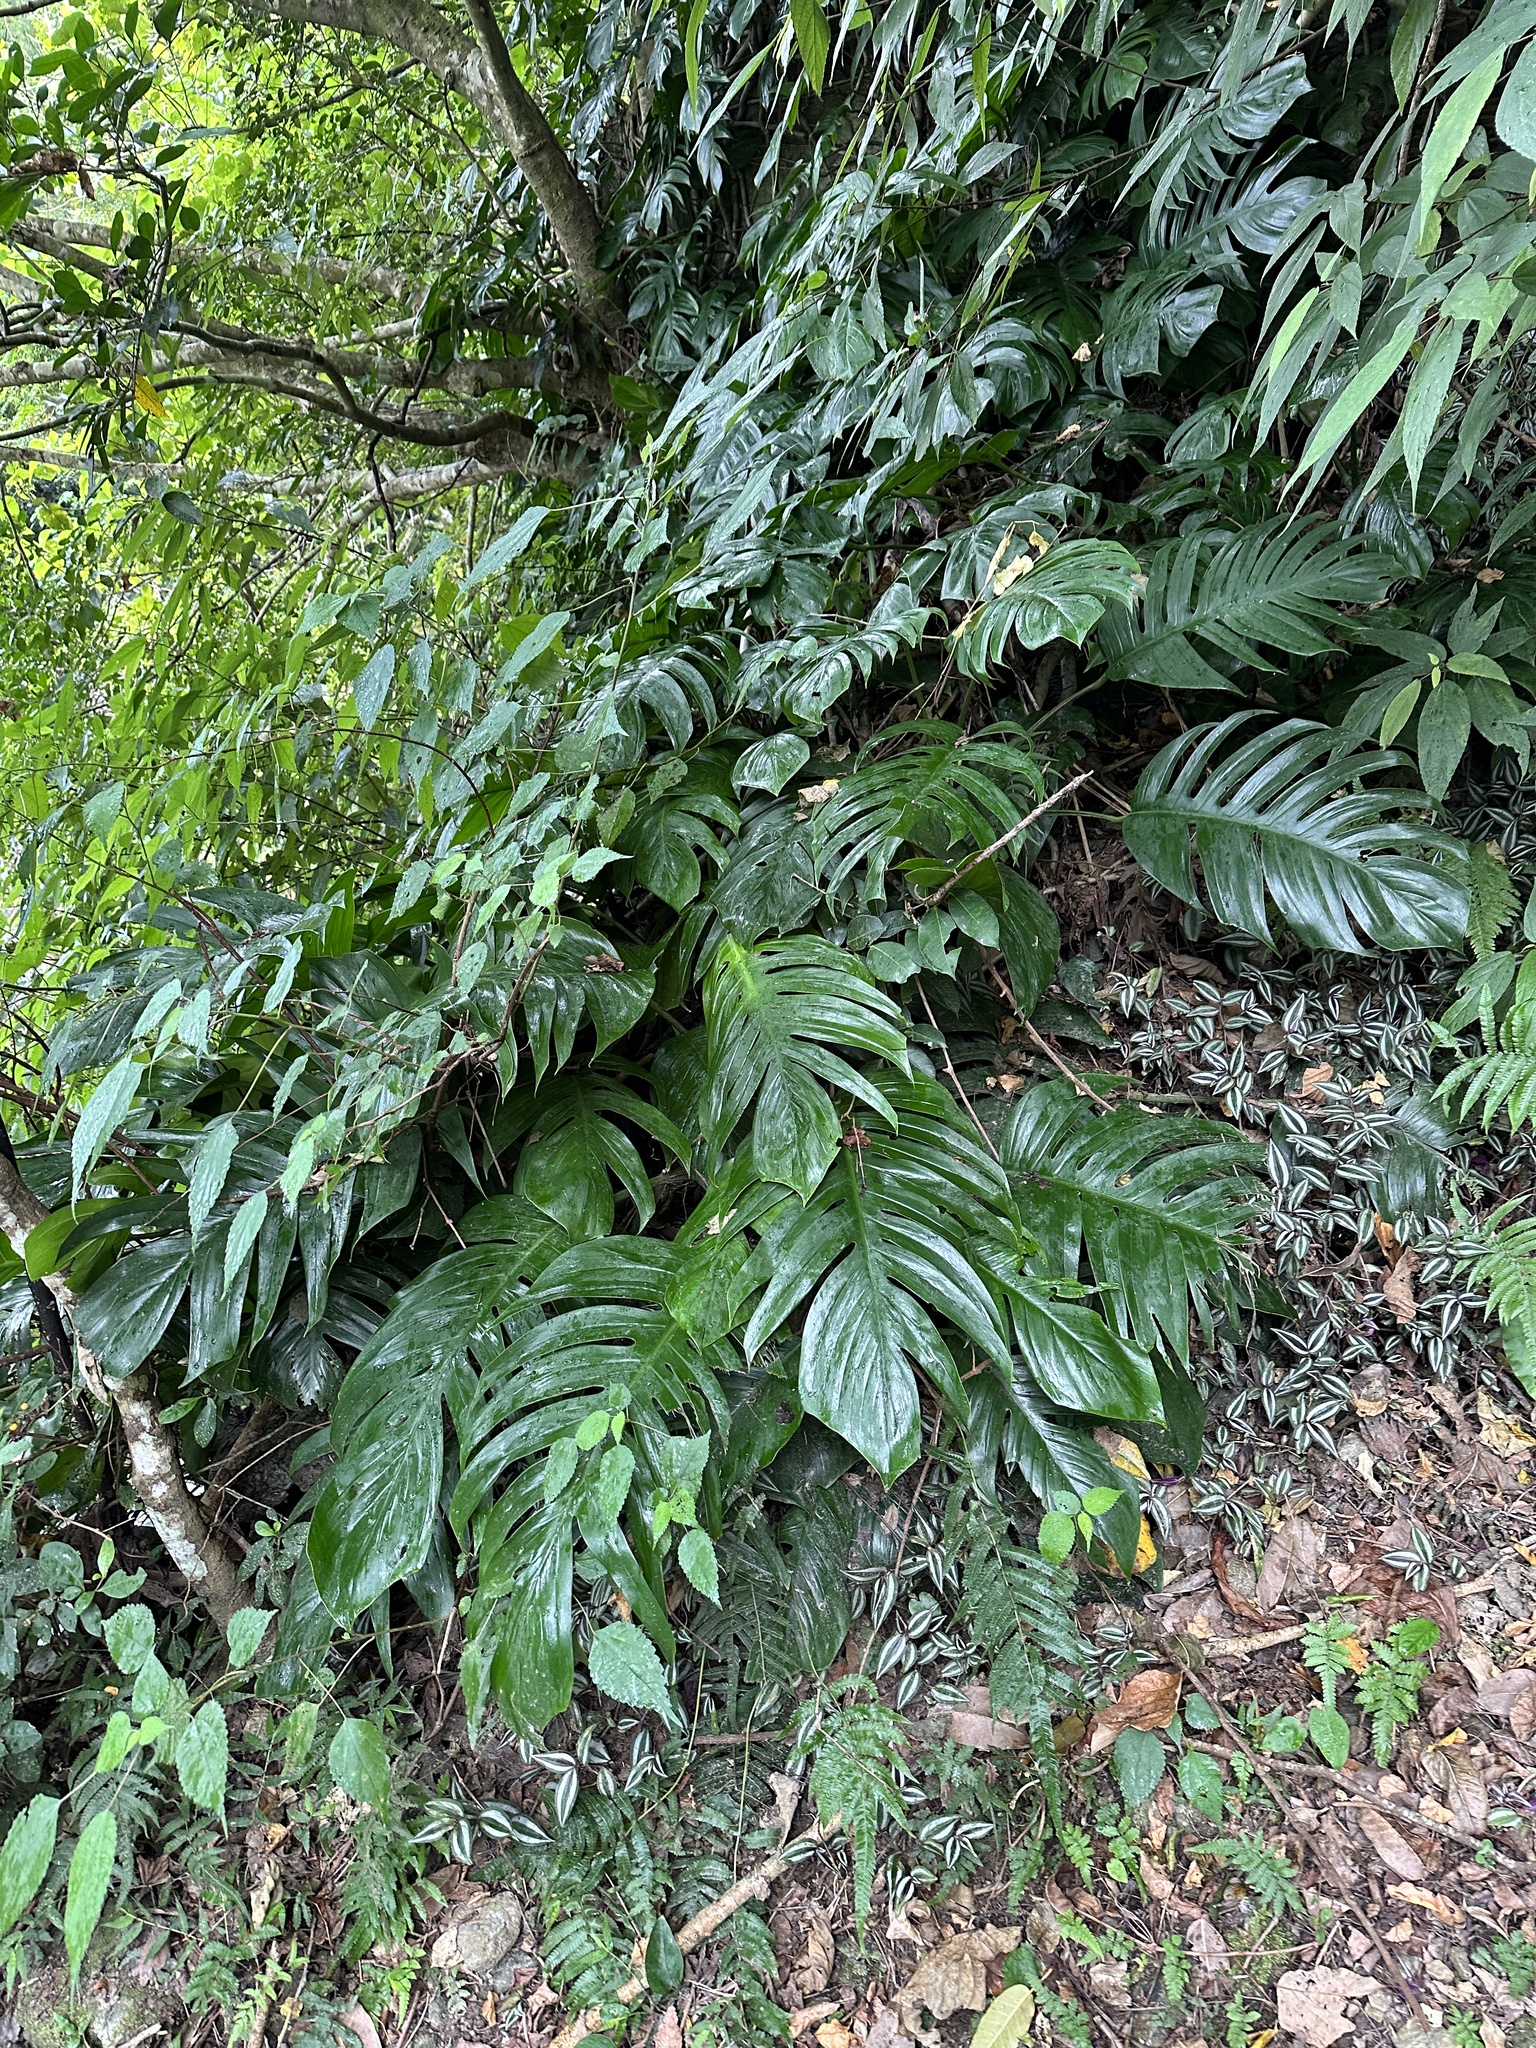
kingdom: Plantae
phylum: Tracheophyta
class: Liliopsida
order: Alismatales
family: Araceae
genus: Epipremnum
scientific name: Epipremnum pinnatum
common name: Centipede tongavine
